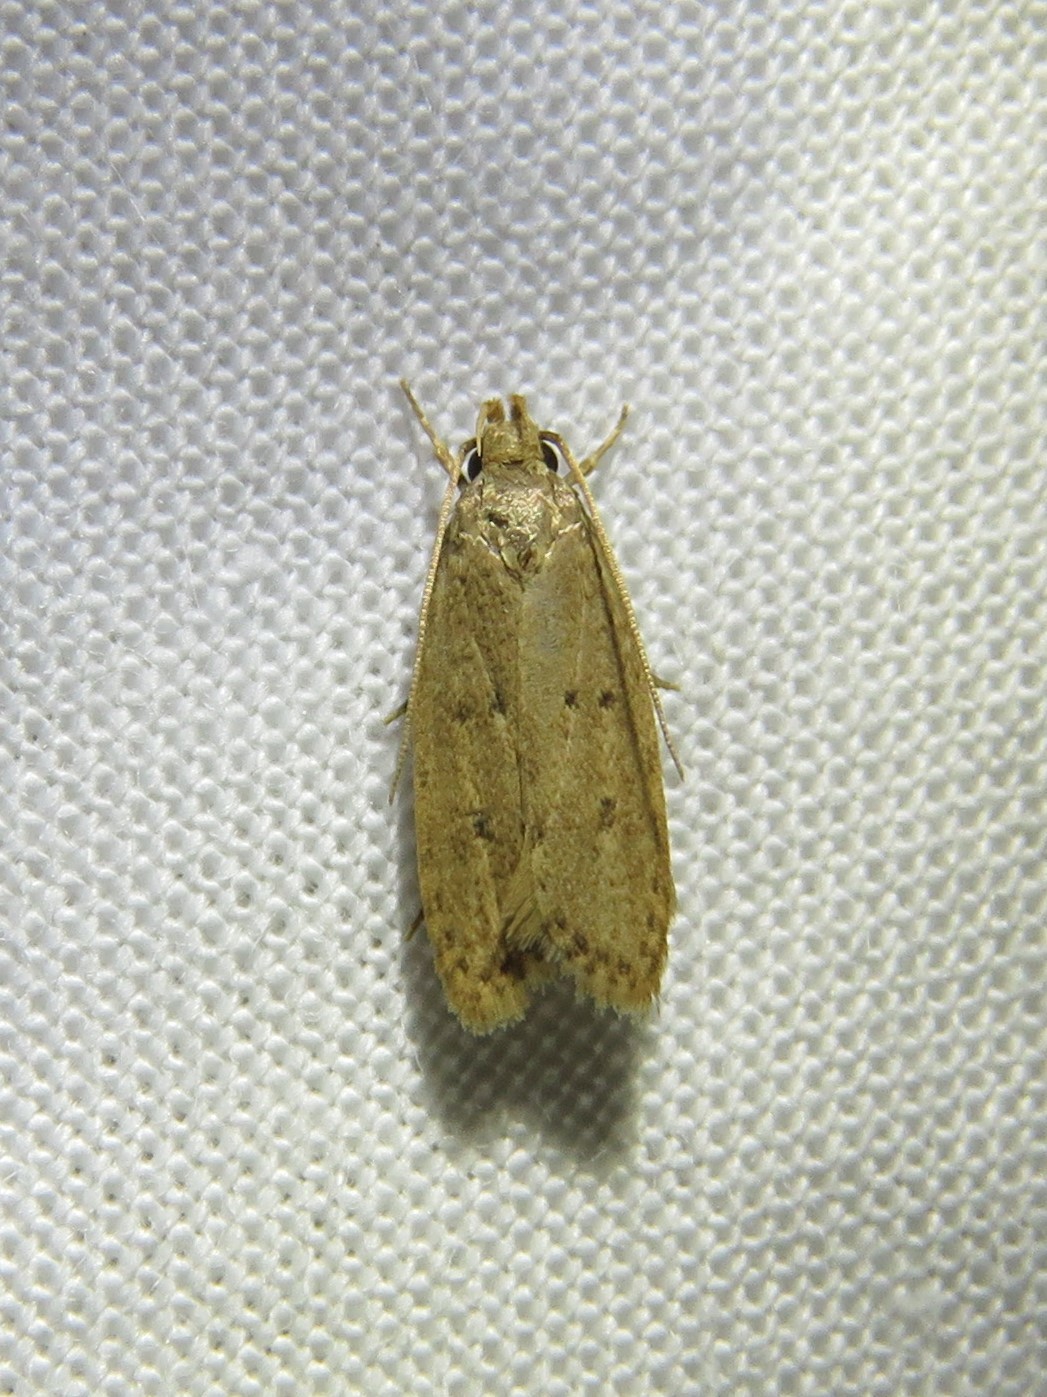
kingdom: Animalia
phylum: Arthropoda
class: Insecta
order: Lepidoptera
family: Autostichidae
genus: Autosticha
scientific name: Autosticha kyotensis
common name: Kyoto moth
